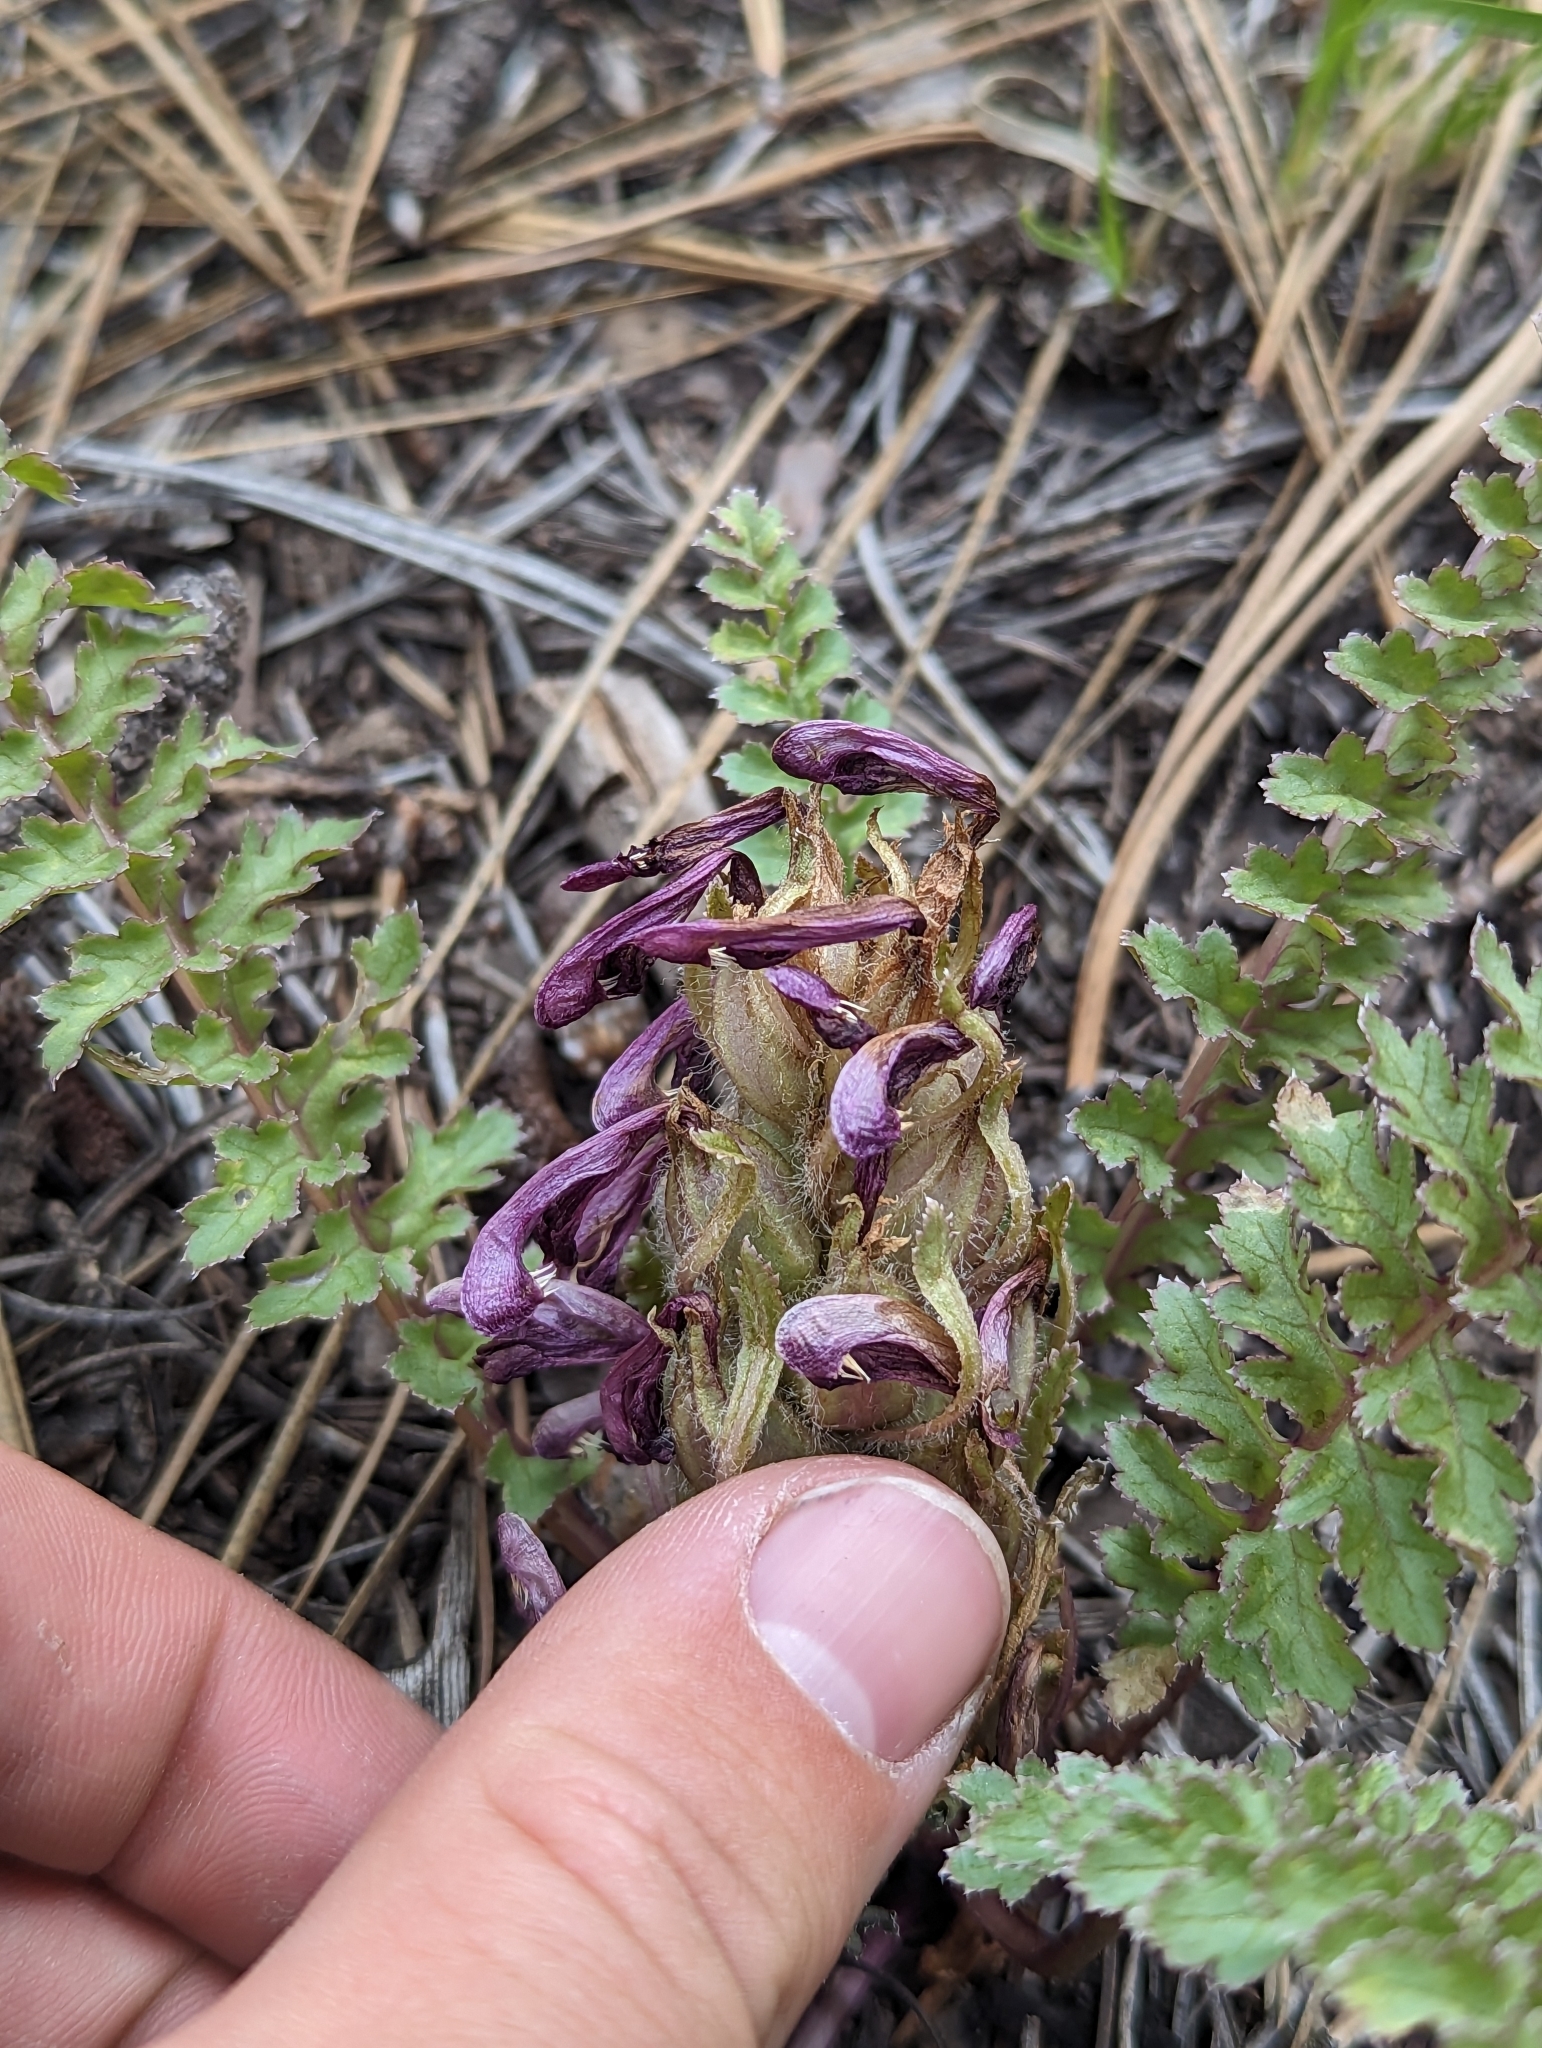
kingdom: Plantae
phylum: Tracheophyta
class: Magnoliopsida
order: Lamiales
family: Orobanchaceae
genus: Pedicularis
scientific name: Pedicularis centranthera
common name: Dwarf lousewort
